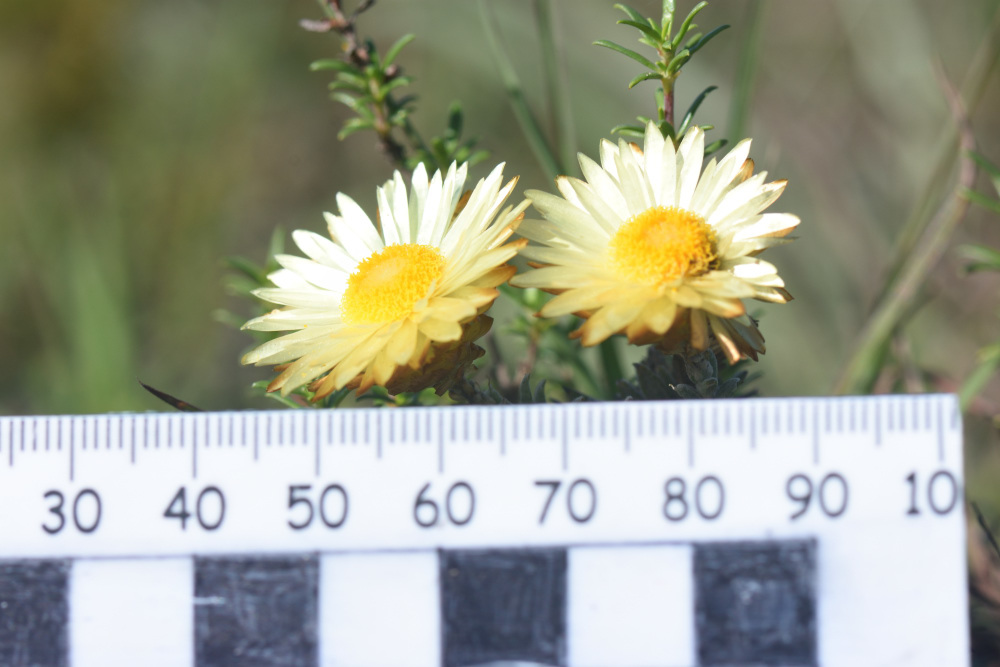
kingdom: Plantae
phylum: Tracheophyta
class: Magnoliopsida
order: Asterales
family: Asteraceae
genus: Helichrysum
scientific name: Helichrysum herbaceum
